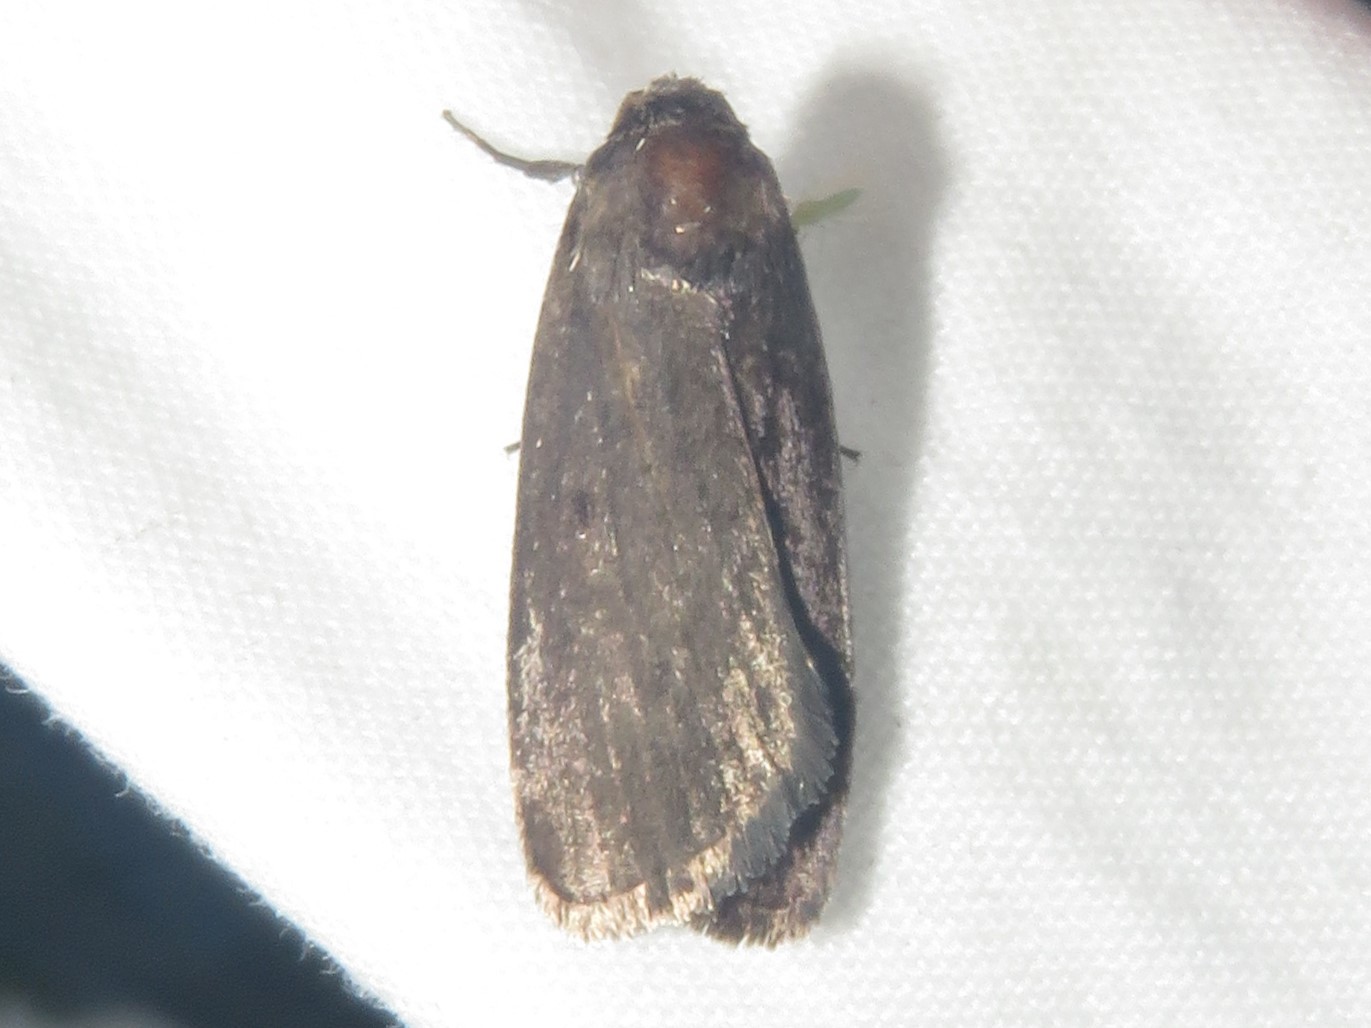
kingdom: Animalia
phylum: Arthropoda
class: Insecta
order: Lepidoptera
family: Noctuidae
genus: Proxenus
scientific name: Proxenus miranda
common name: Miranda moth
